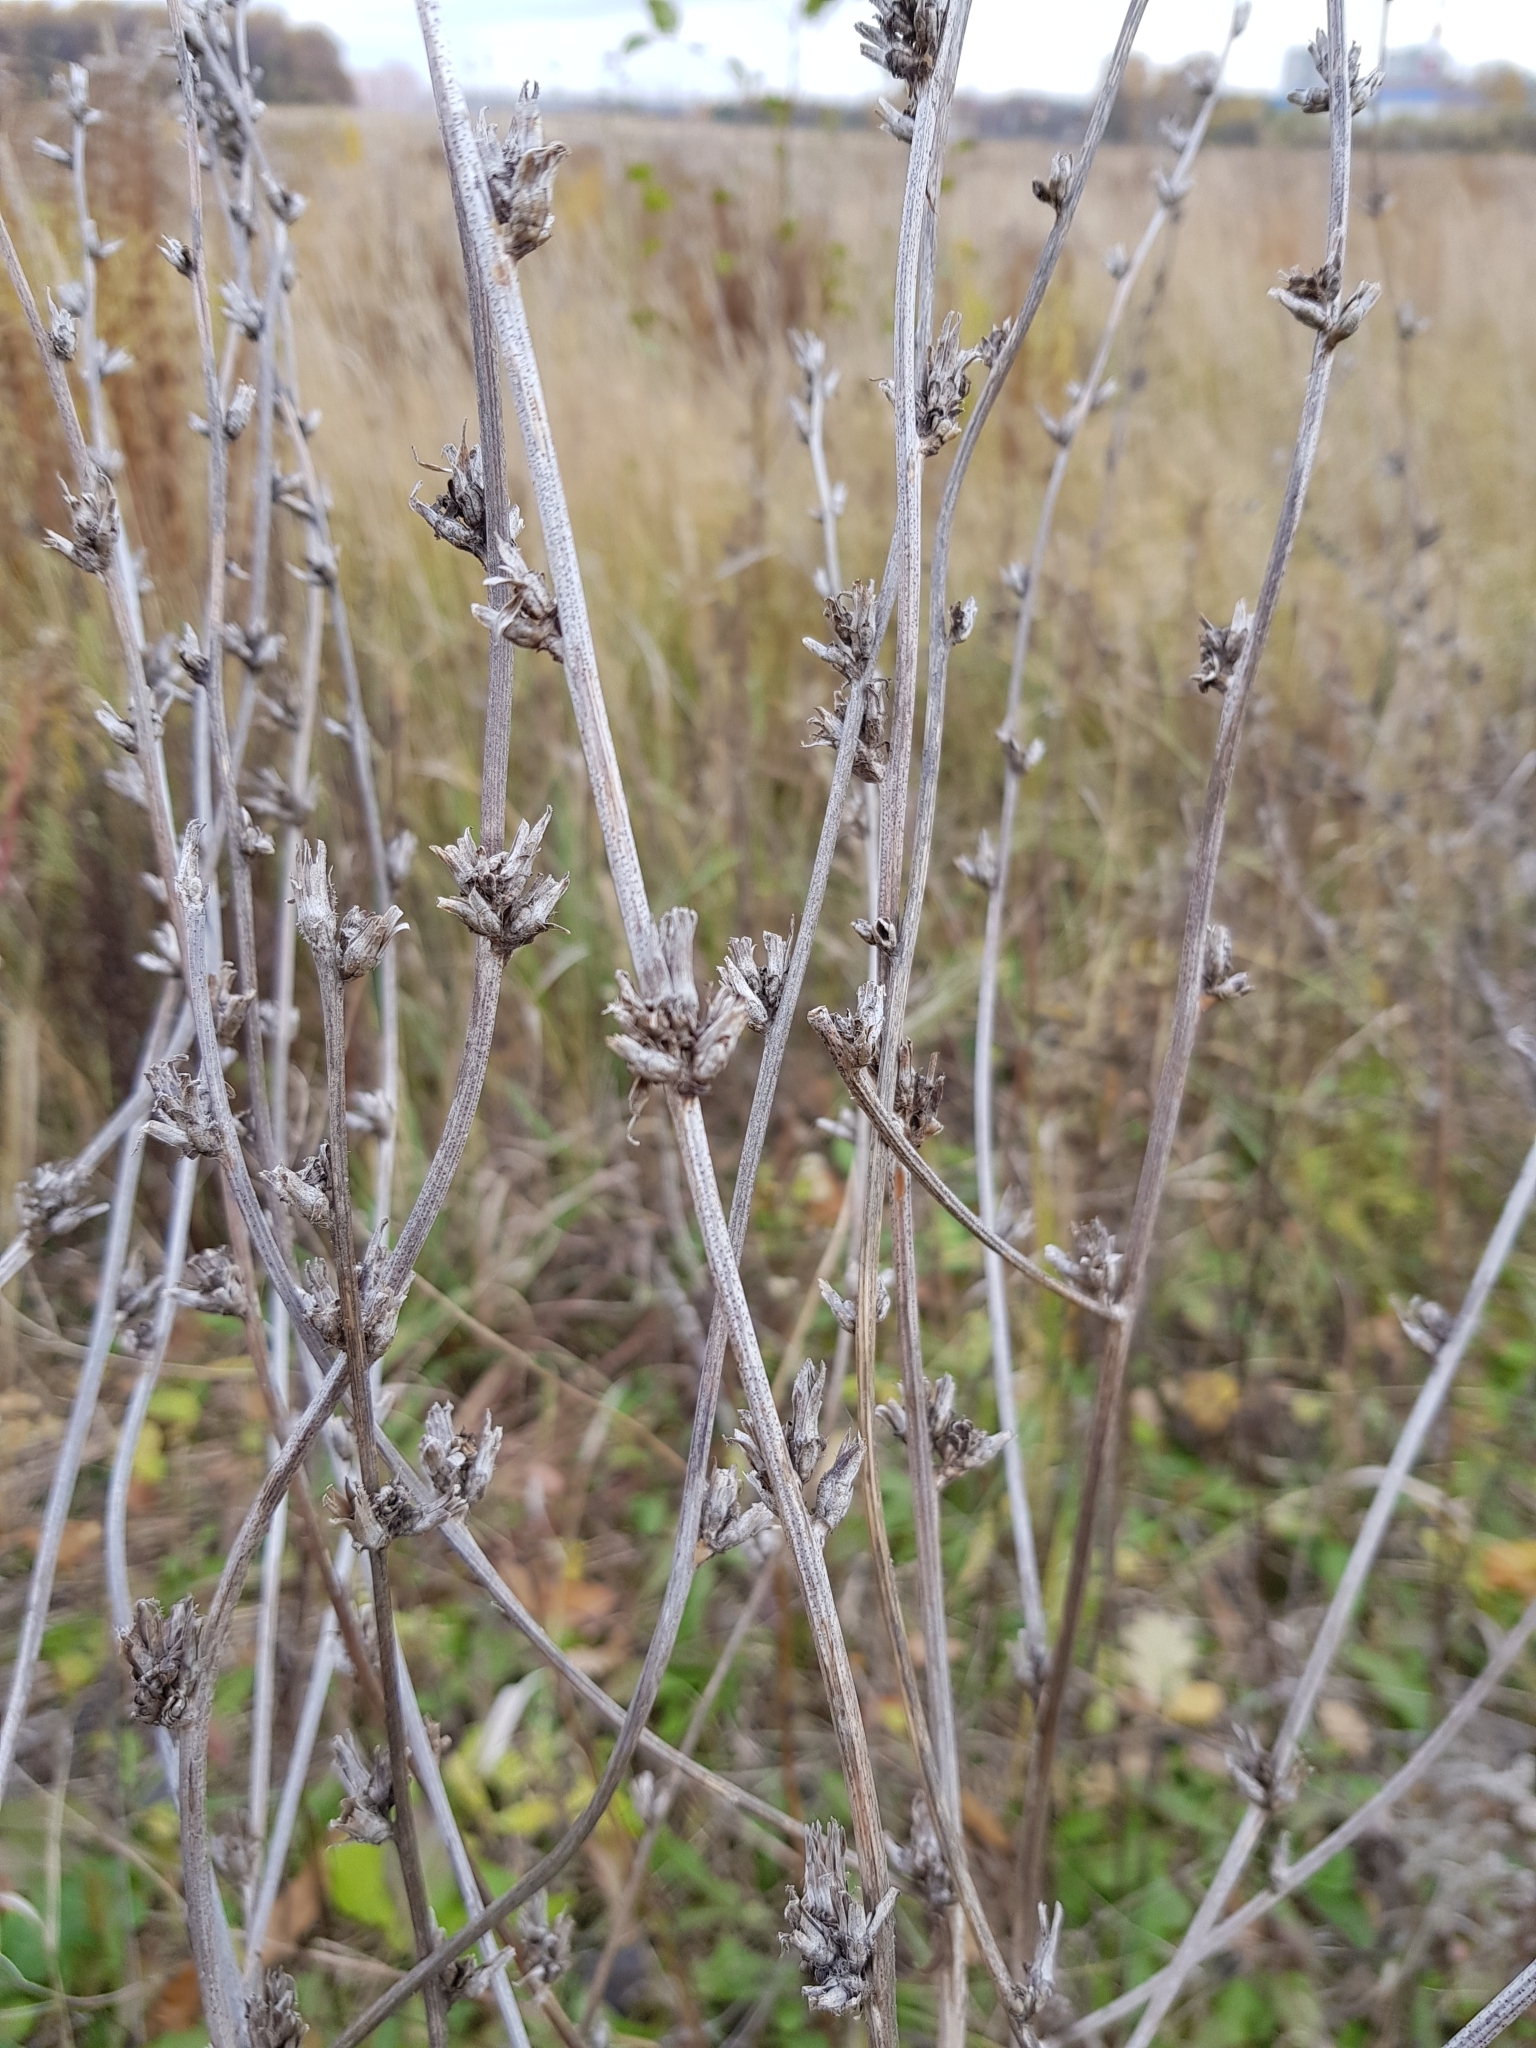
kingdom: Plantae
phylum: Tracheophyta
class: Magnoliopsida
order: Asterales
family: Asteraceae
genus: Cichorium
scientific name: Cichorium intybus
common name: Chicory
